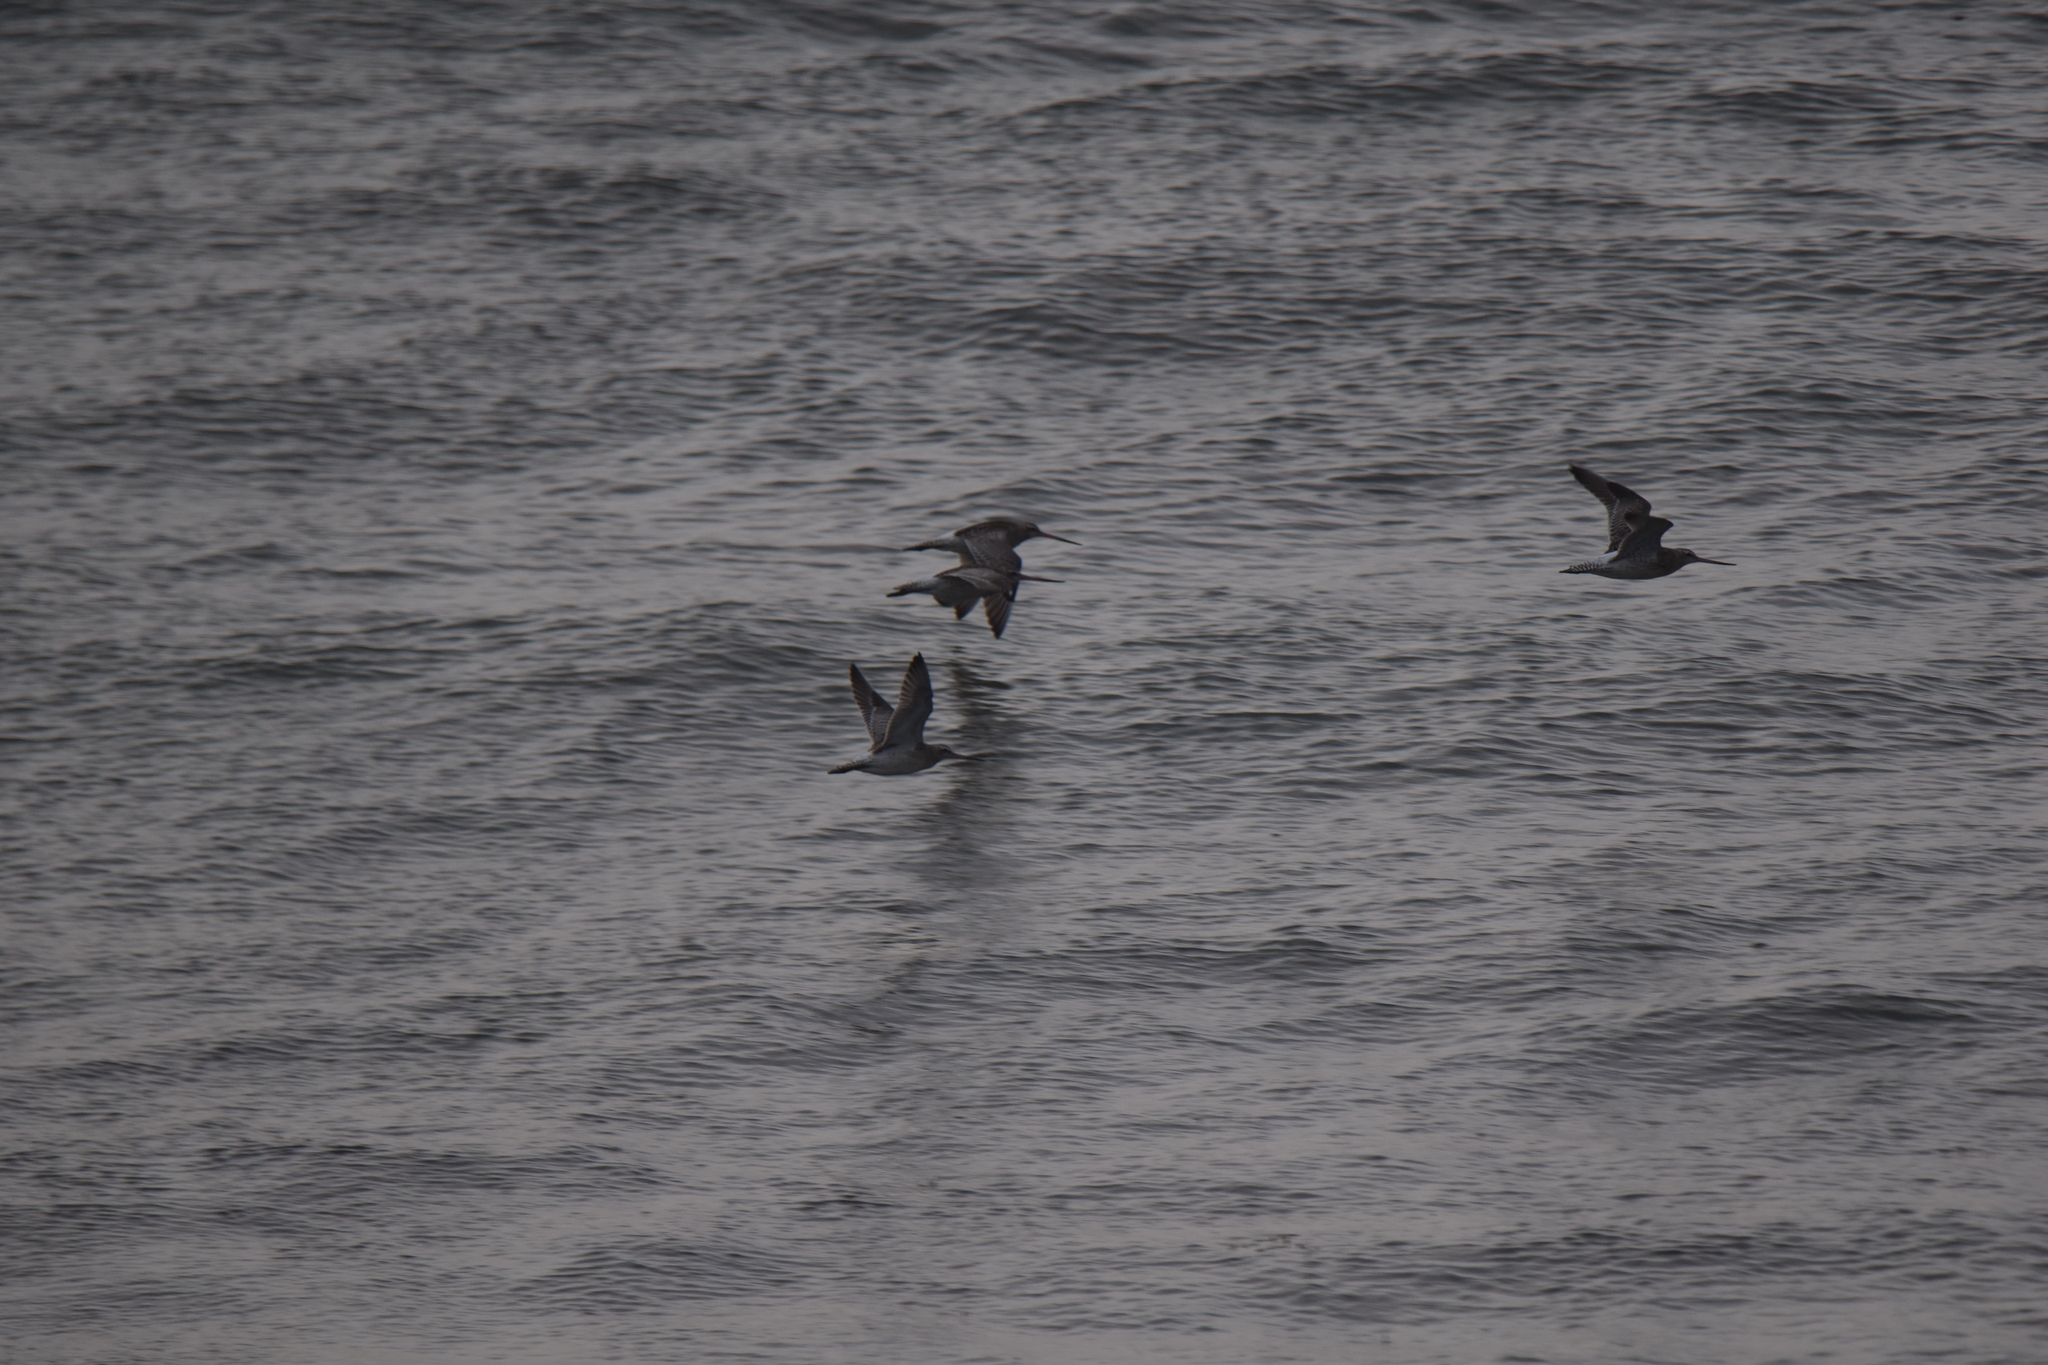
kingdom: Animalia
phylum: Chordata
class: Aves
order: Charadriiformes
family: Scolopacidae
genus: Limosa
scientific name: Limosa lapponica
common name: Bar-tailed godwit
